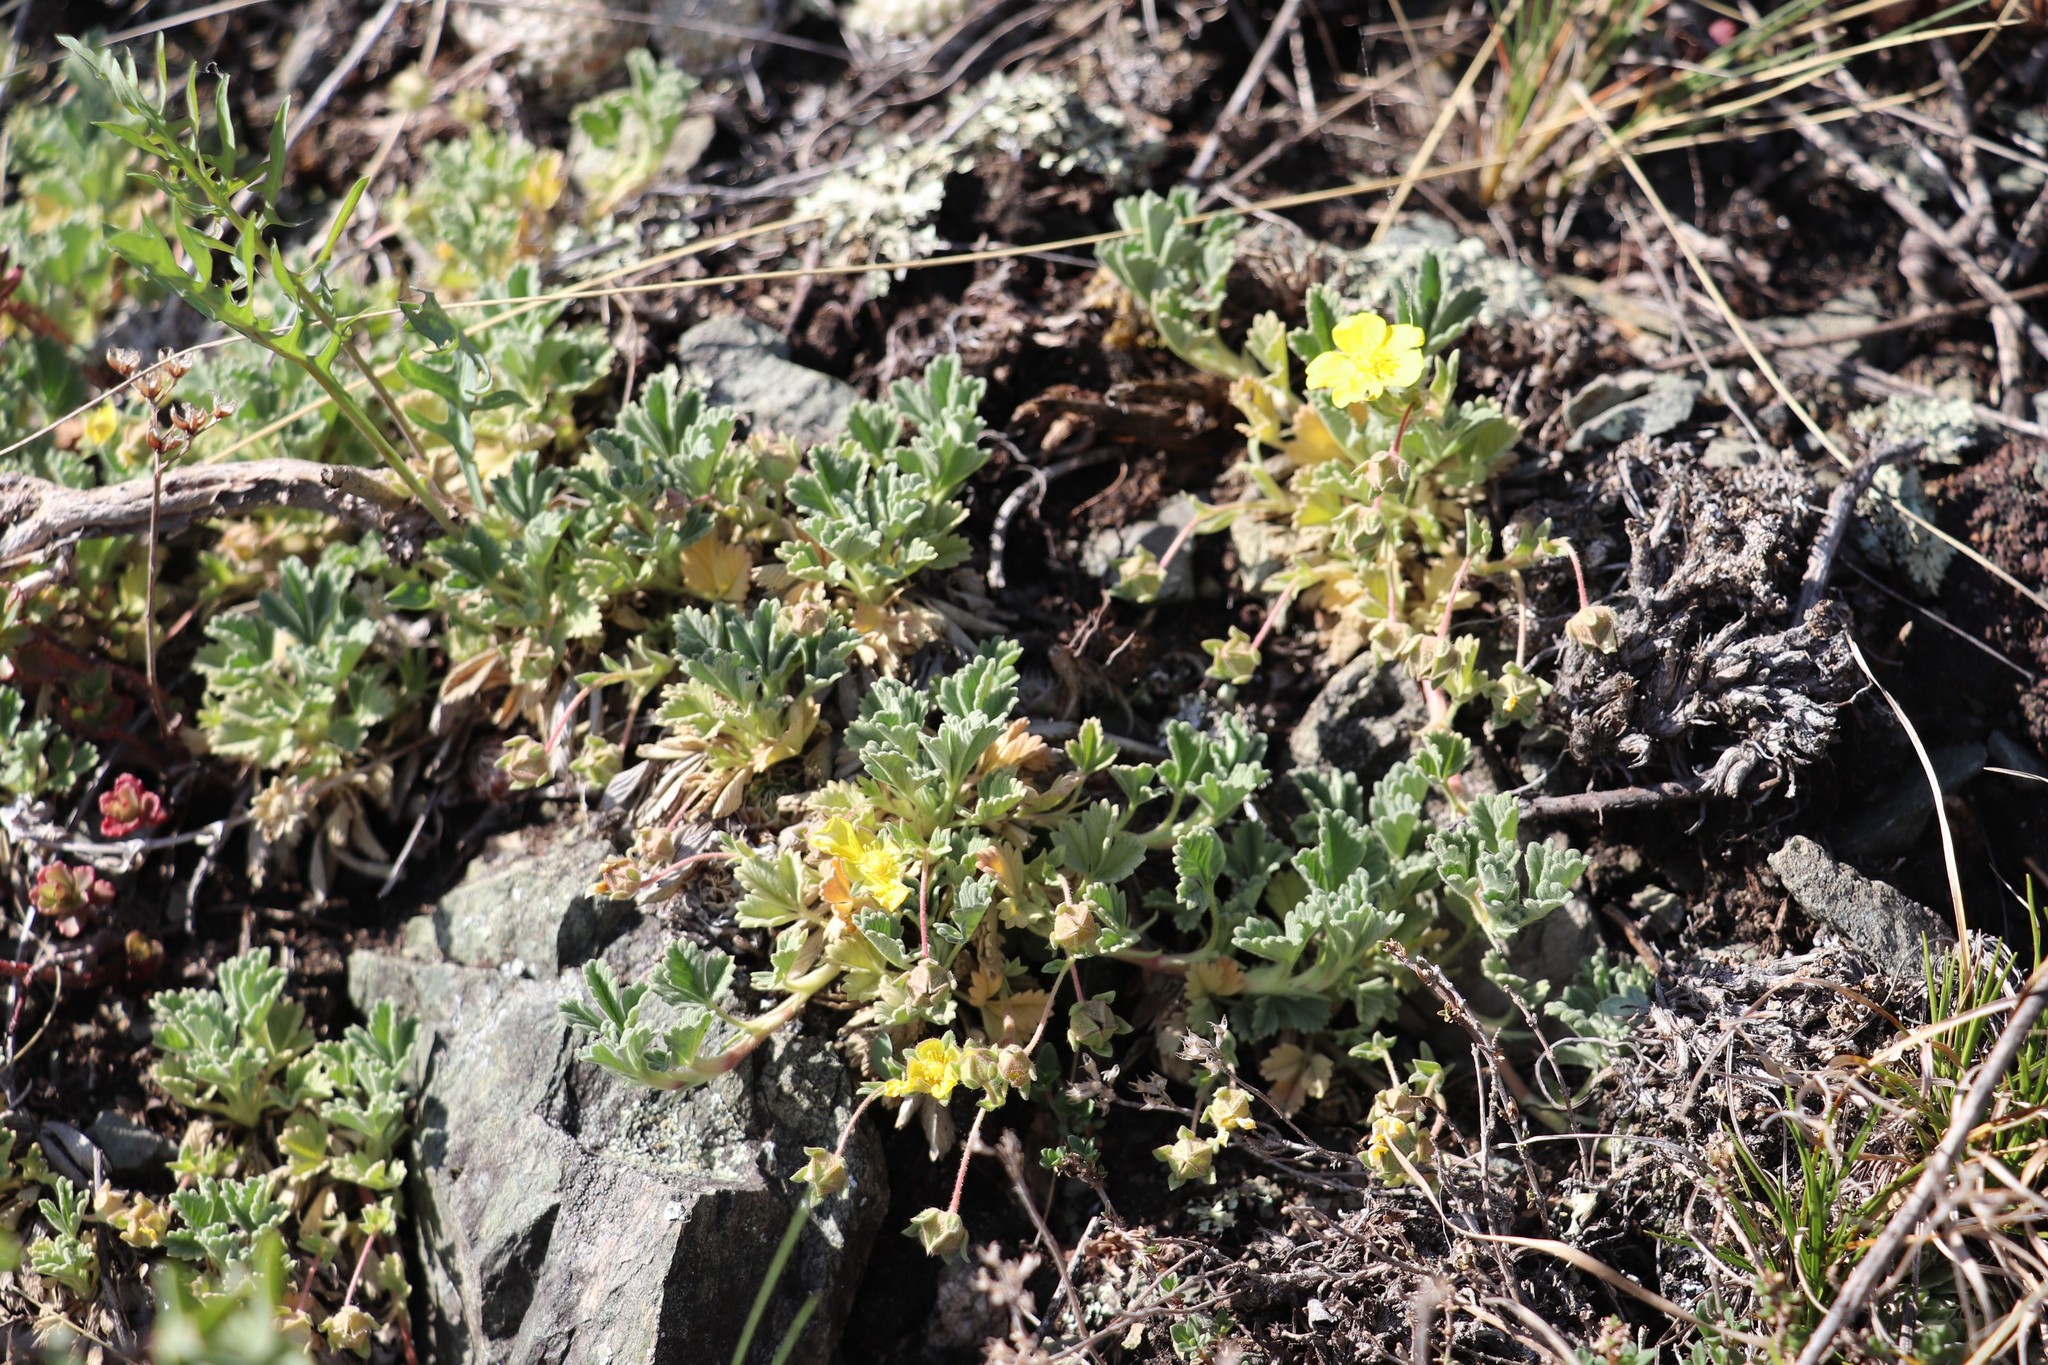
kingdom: Plantae
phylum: Tracheophyta
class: Magnoliopsida
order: Rosales
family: Rosaceae
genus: Potentilla
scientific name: Potentilla acaulis
